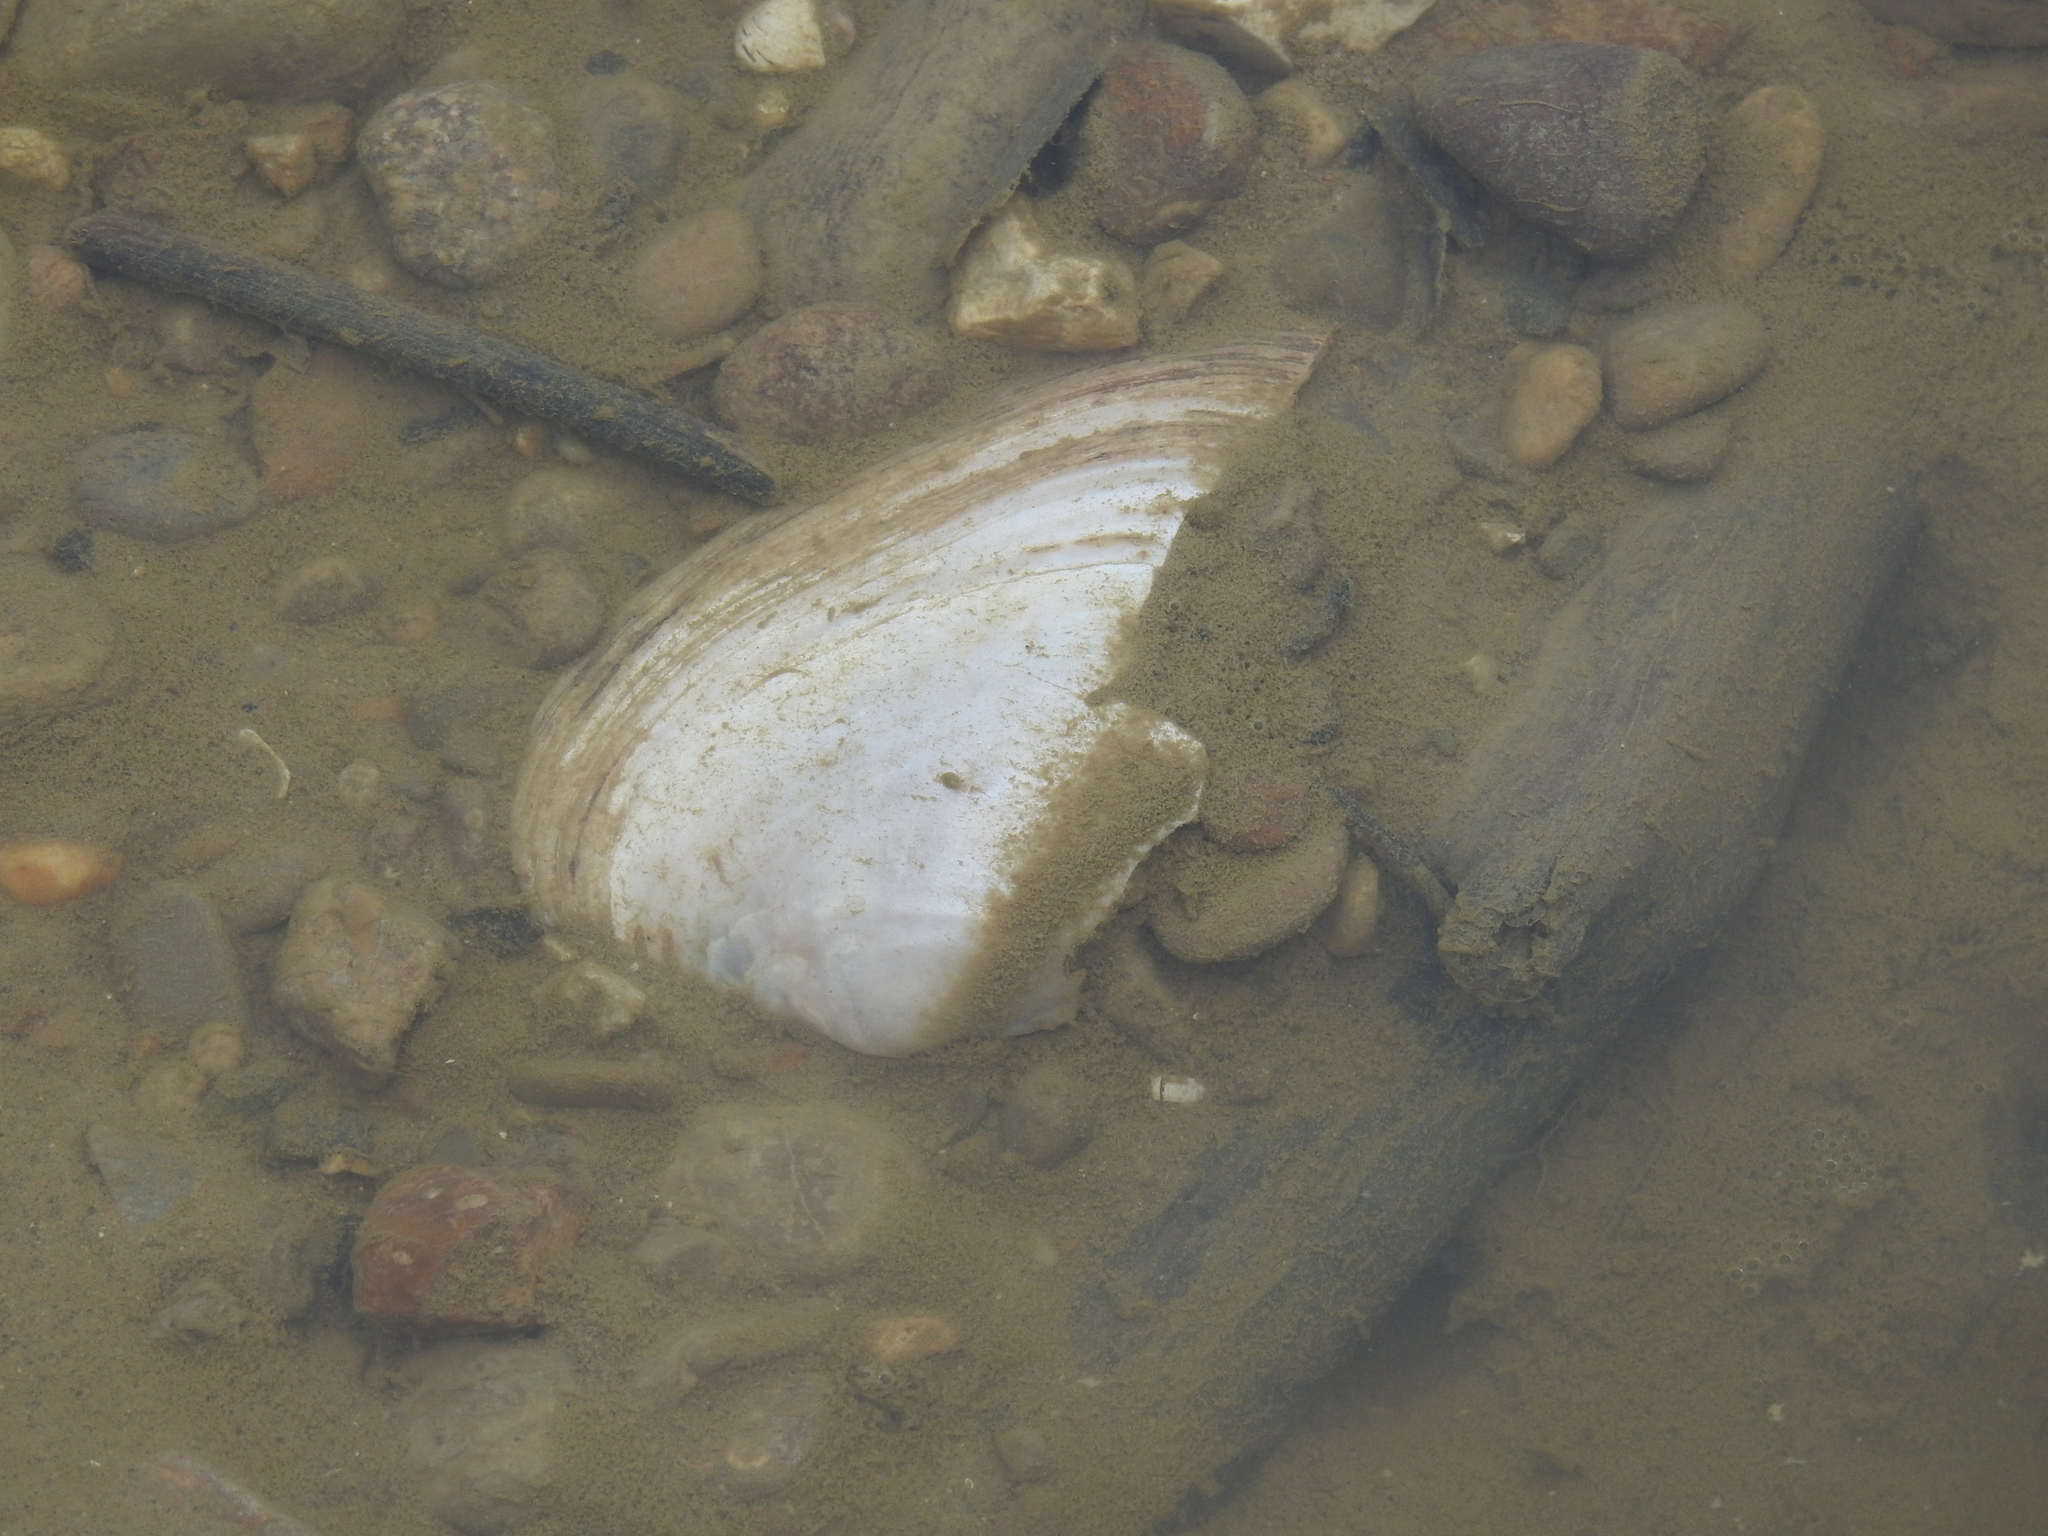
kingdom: Animalia
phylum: Mollusca
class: Bivalvia
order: Unionida
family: Unionidae
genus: Potamilus
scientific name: Potamilus alatus
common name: Pink heelsplitter
